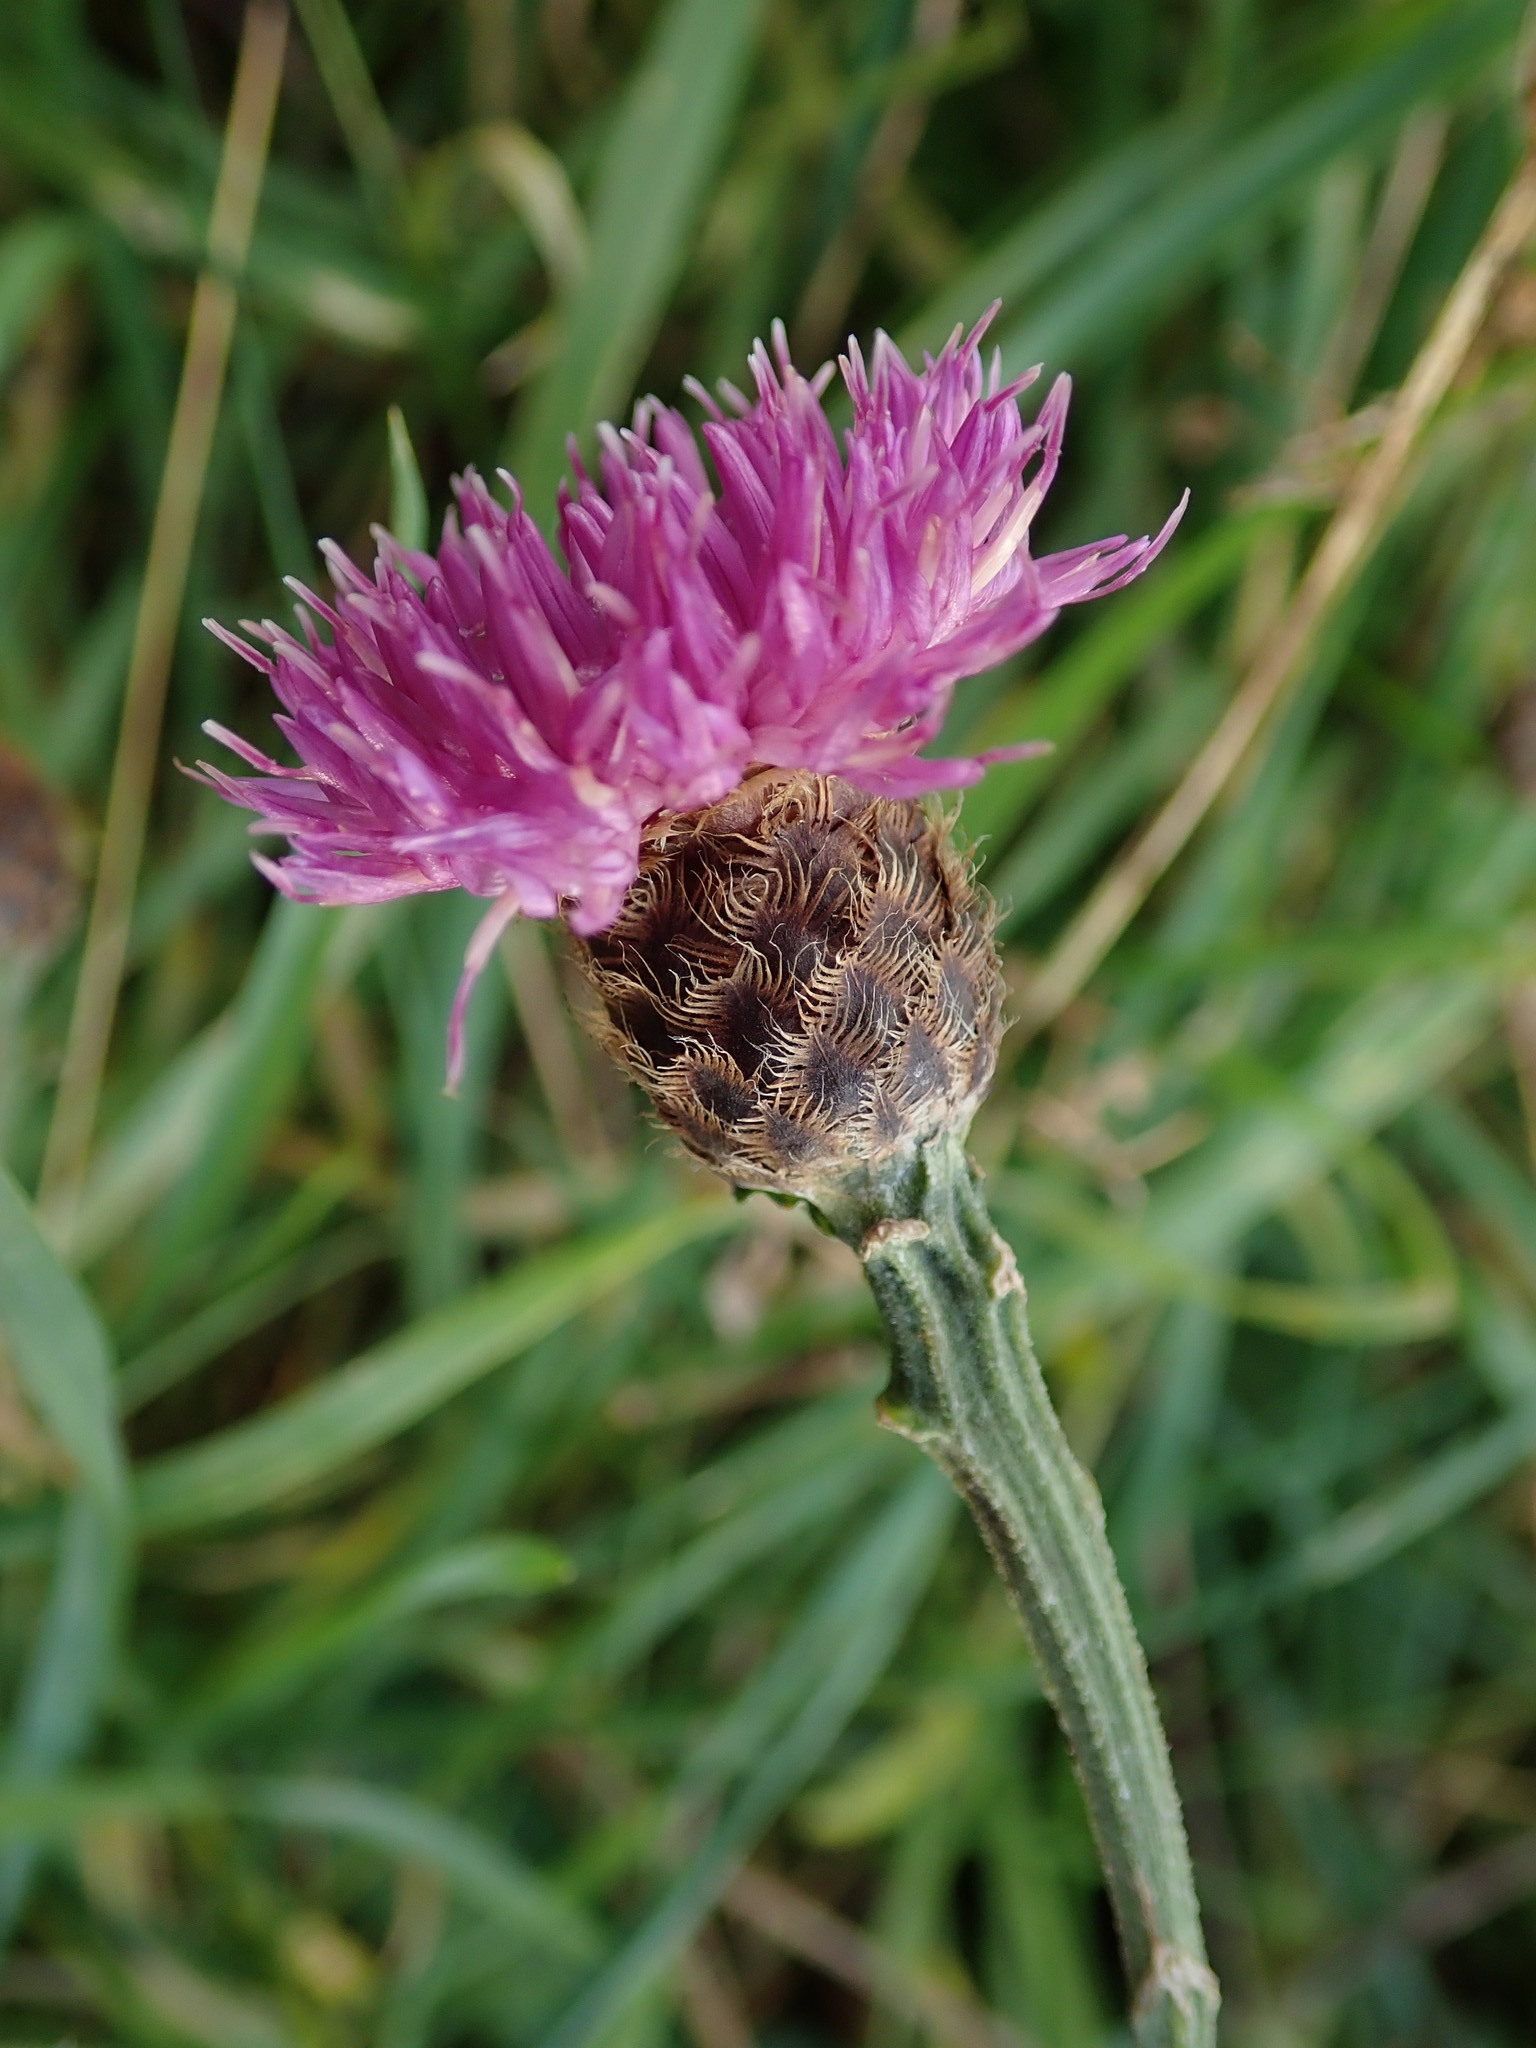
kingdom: Plantae
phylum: Tracheophyta
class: Magnoliopsida
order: Asterales
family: Asteraceae
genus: Centaurea
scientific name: Centaurea nigra
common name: Lesser knapweed
